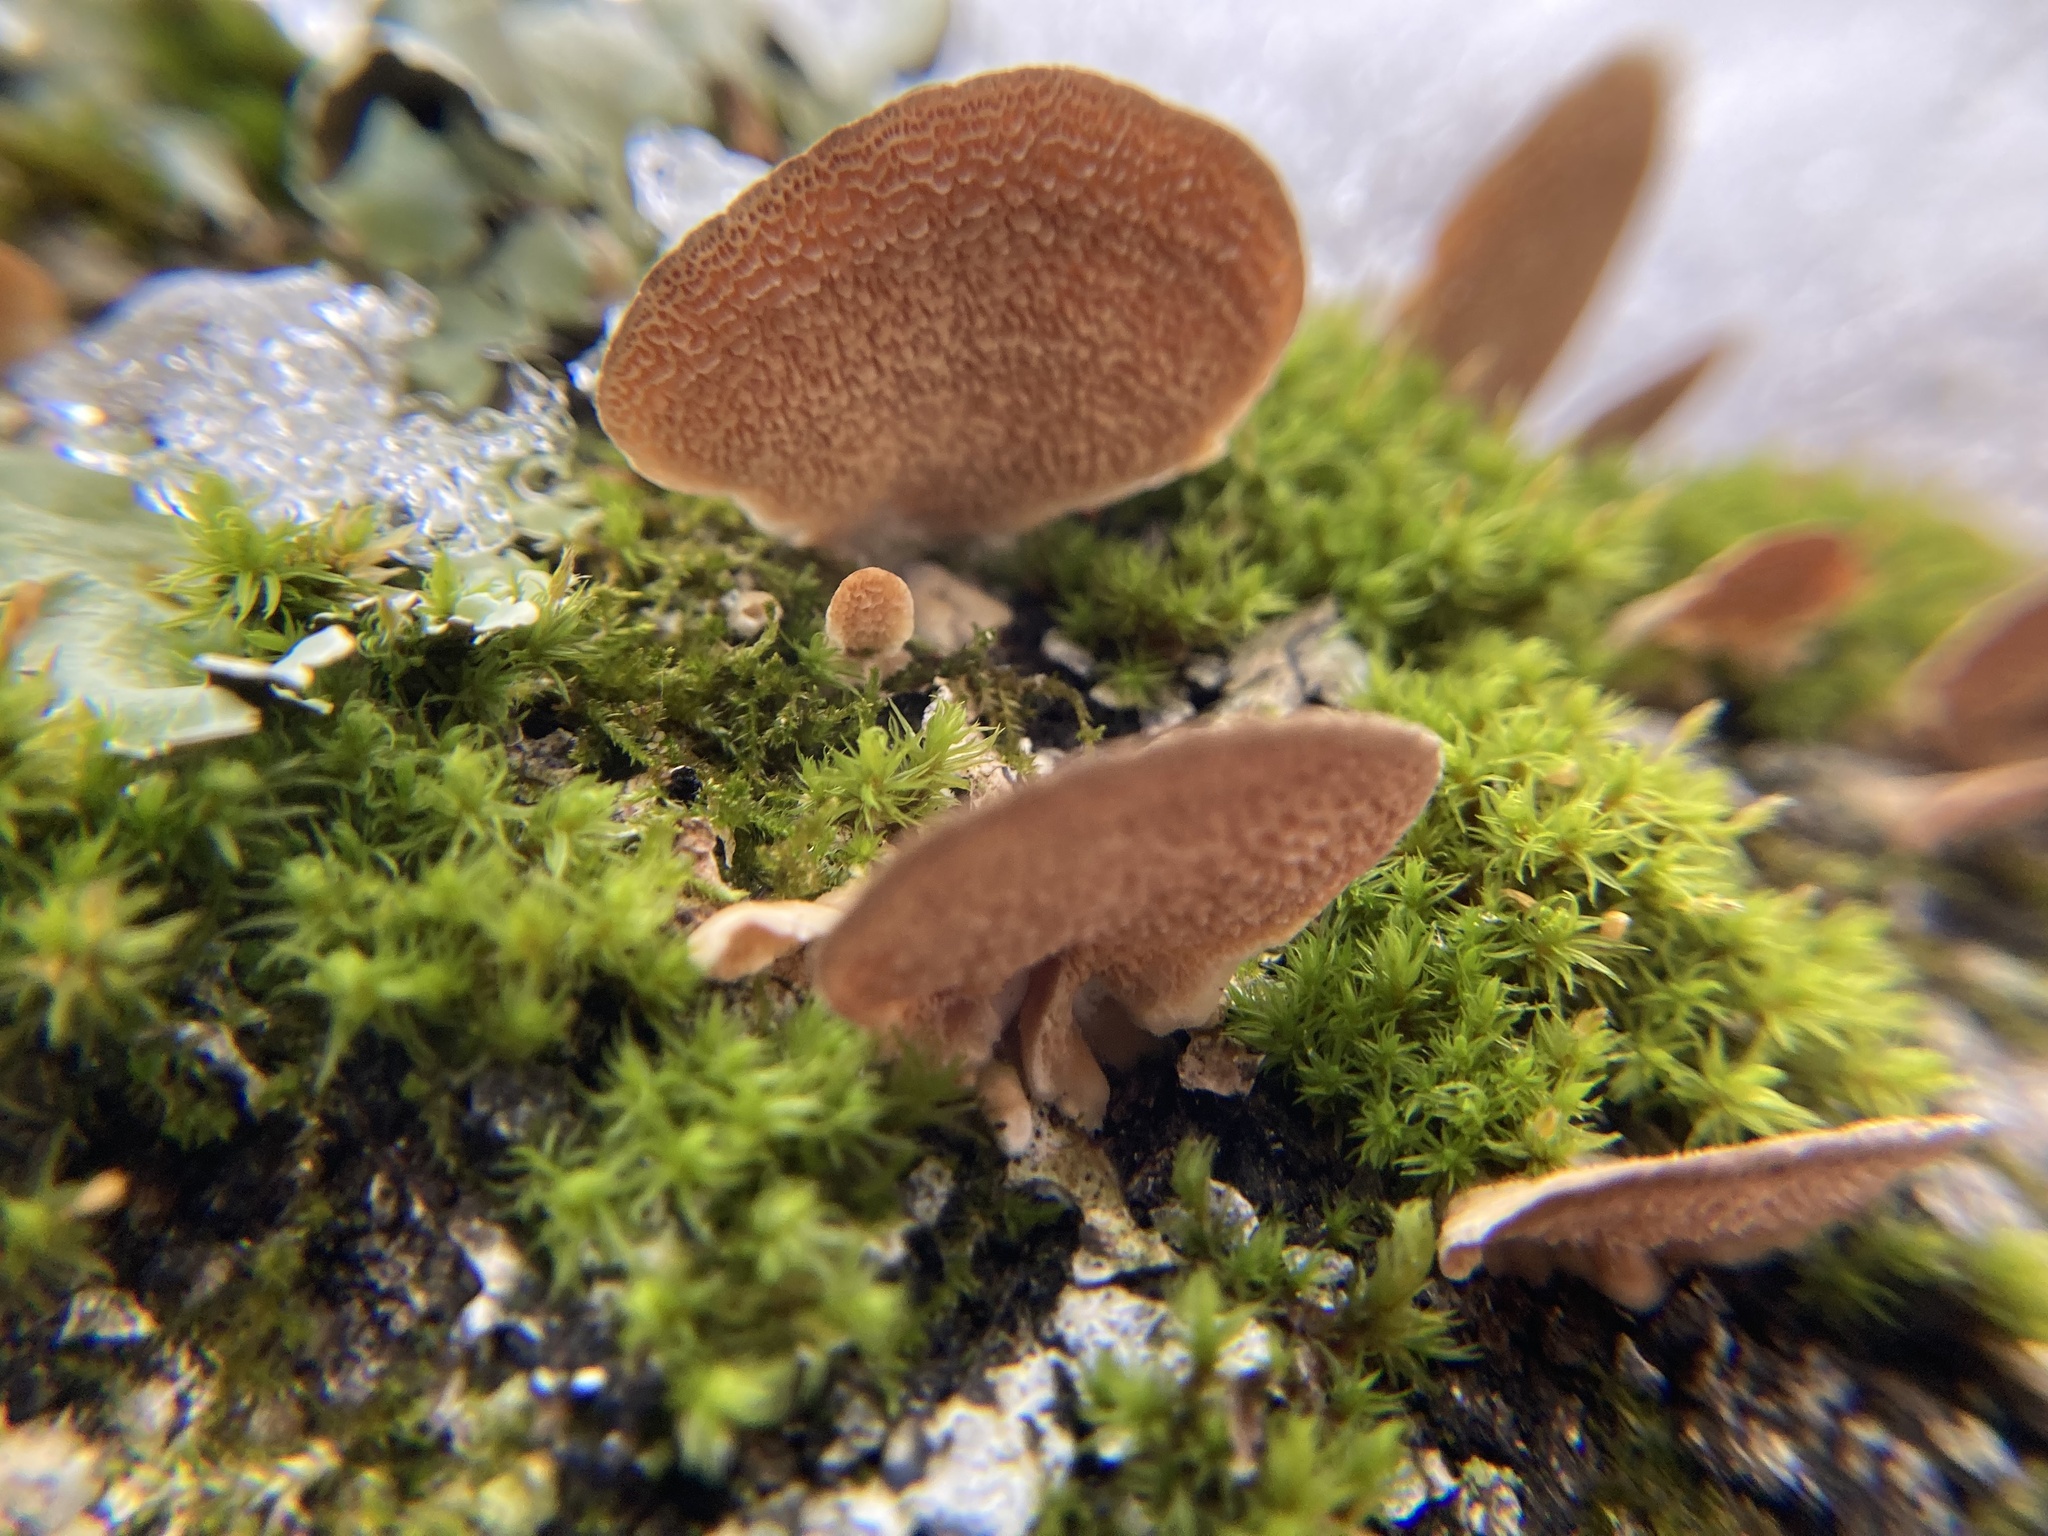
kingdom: Fungi
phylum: Basidiomycota
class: Agaricomycetes
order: Agaricales
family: Mycenaceae
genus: Panellus
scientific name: Panellus stipticus
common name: Bitter oysterling
